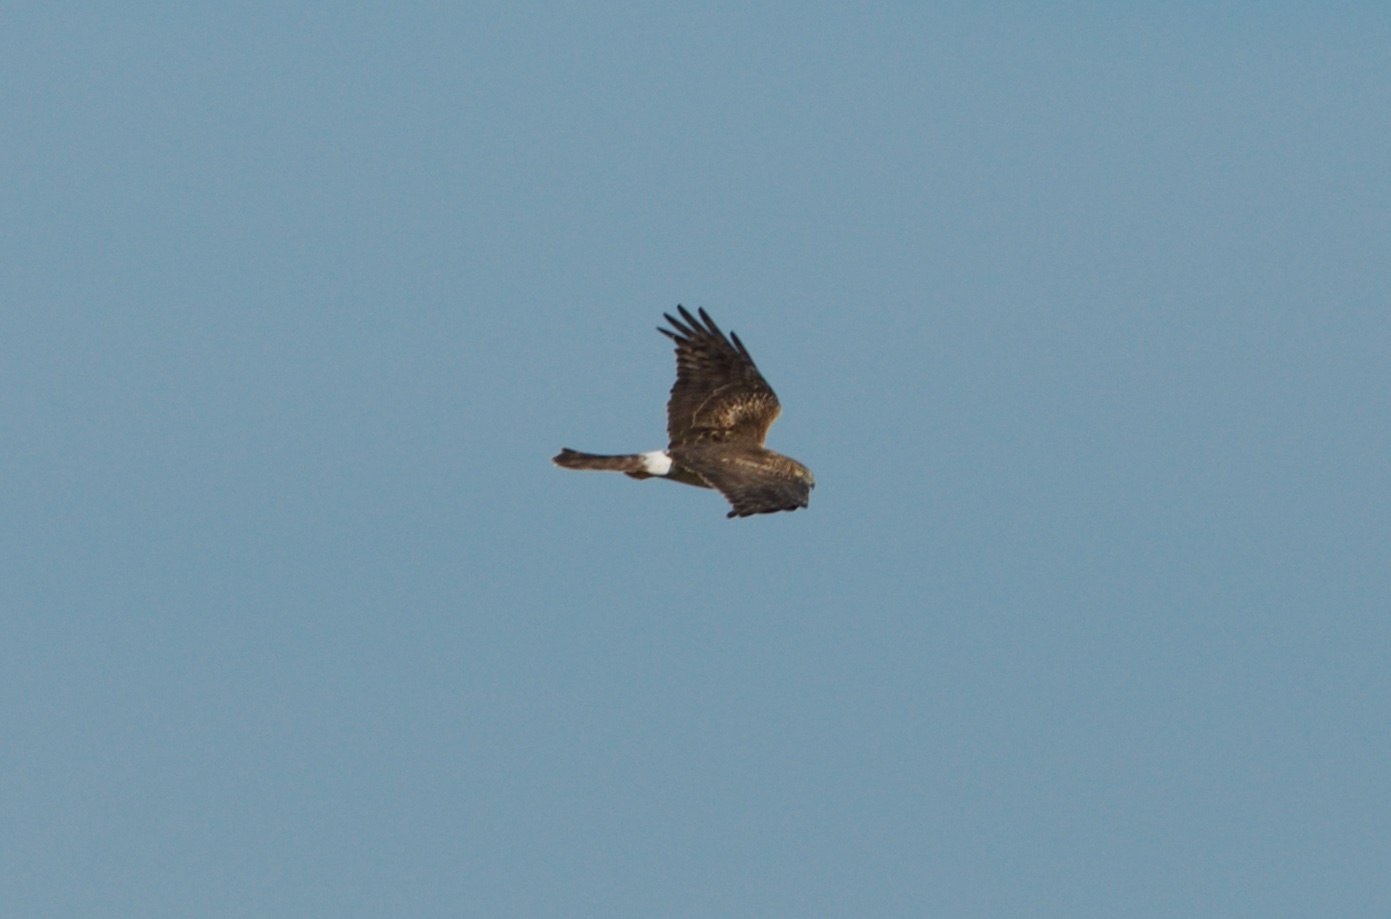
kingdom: Animalia
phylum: Chordata
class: Aves
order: Accipitriformes
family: Accipitridae
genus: Circus
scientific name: Circus cyaneus
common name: Hen harrier
